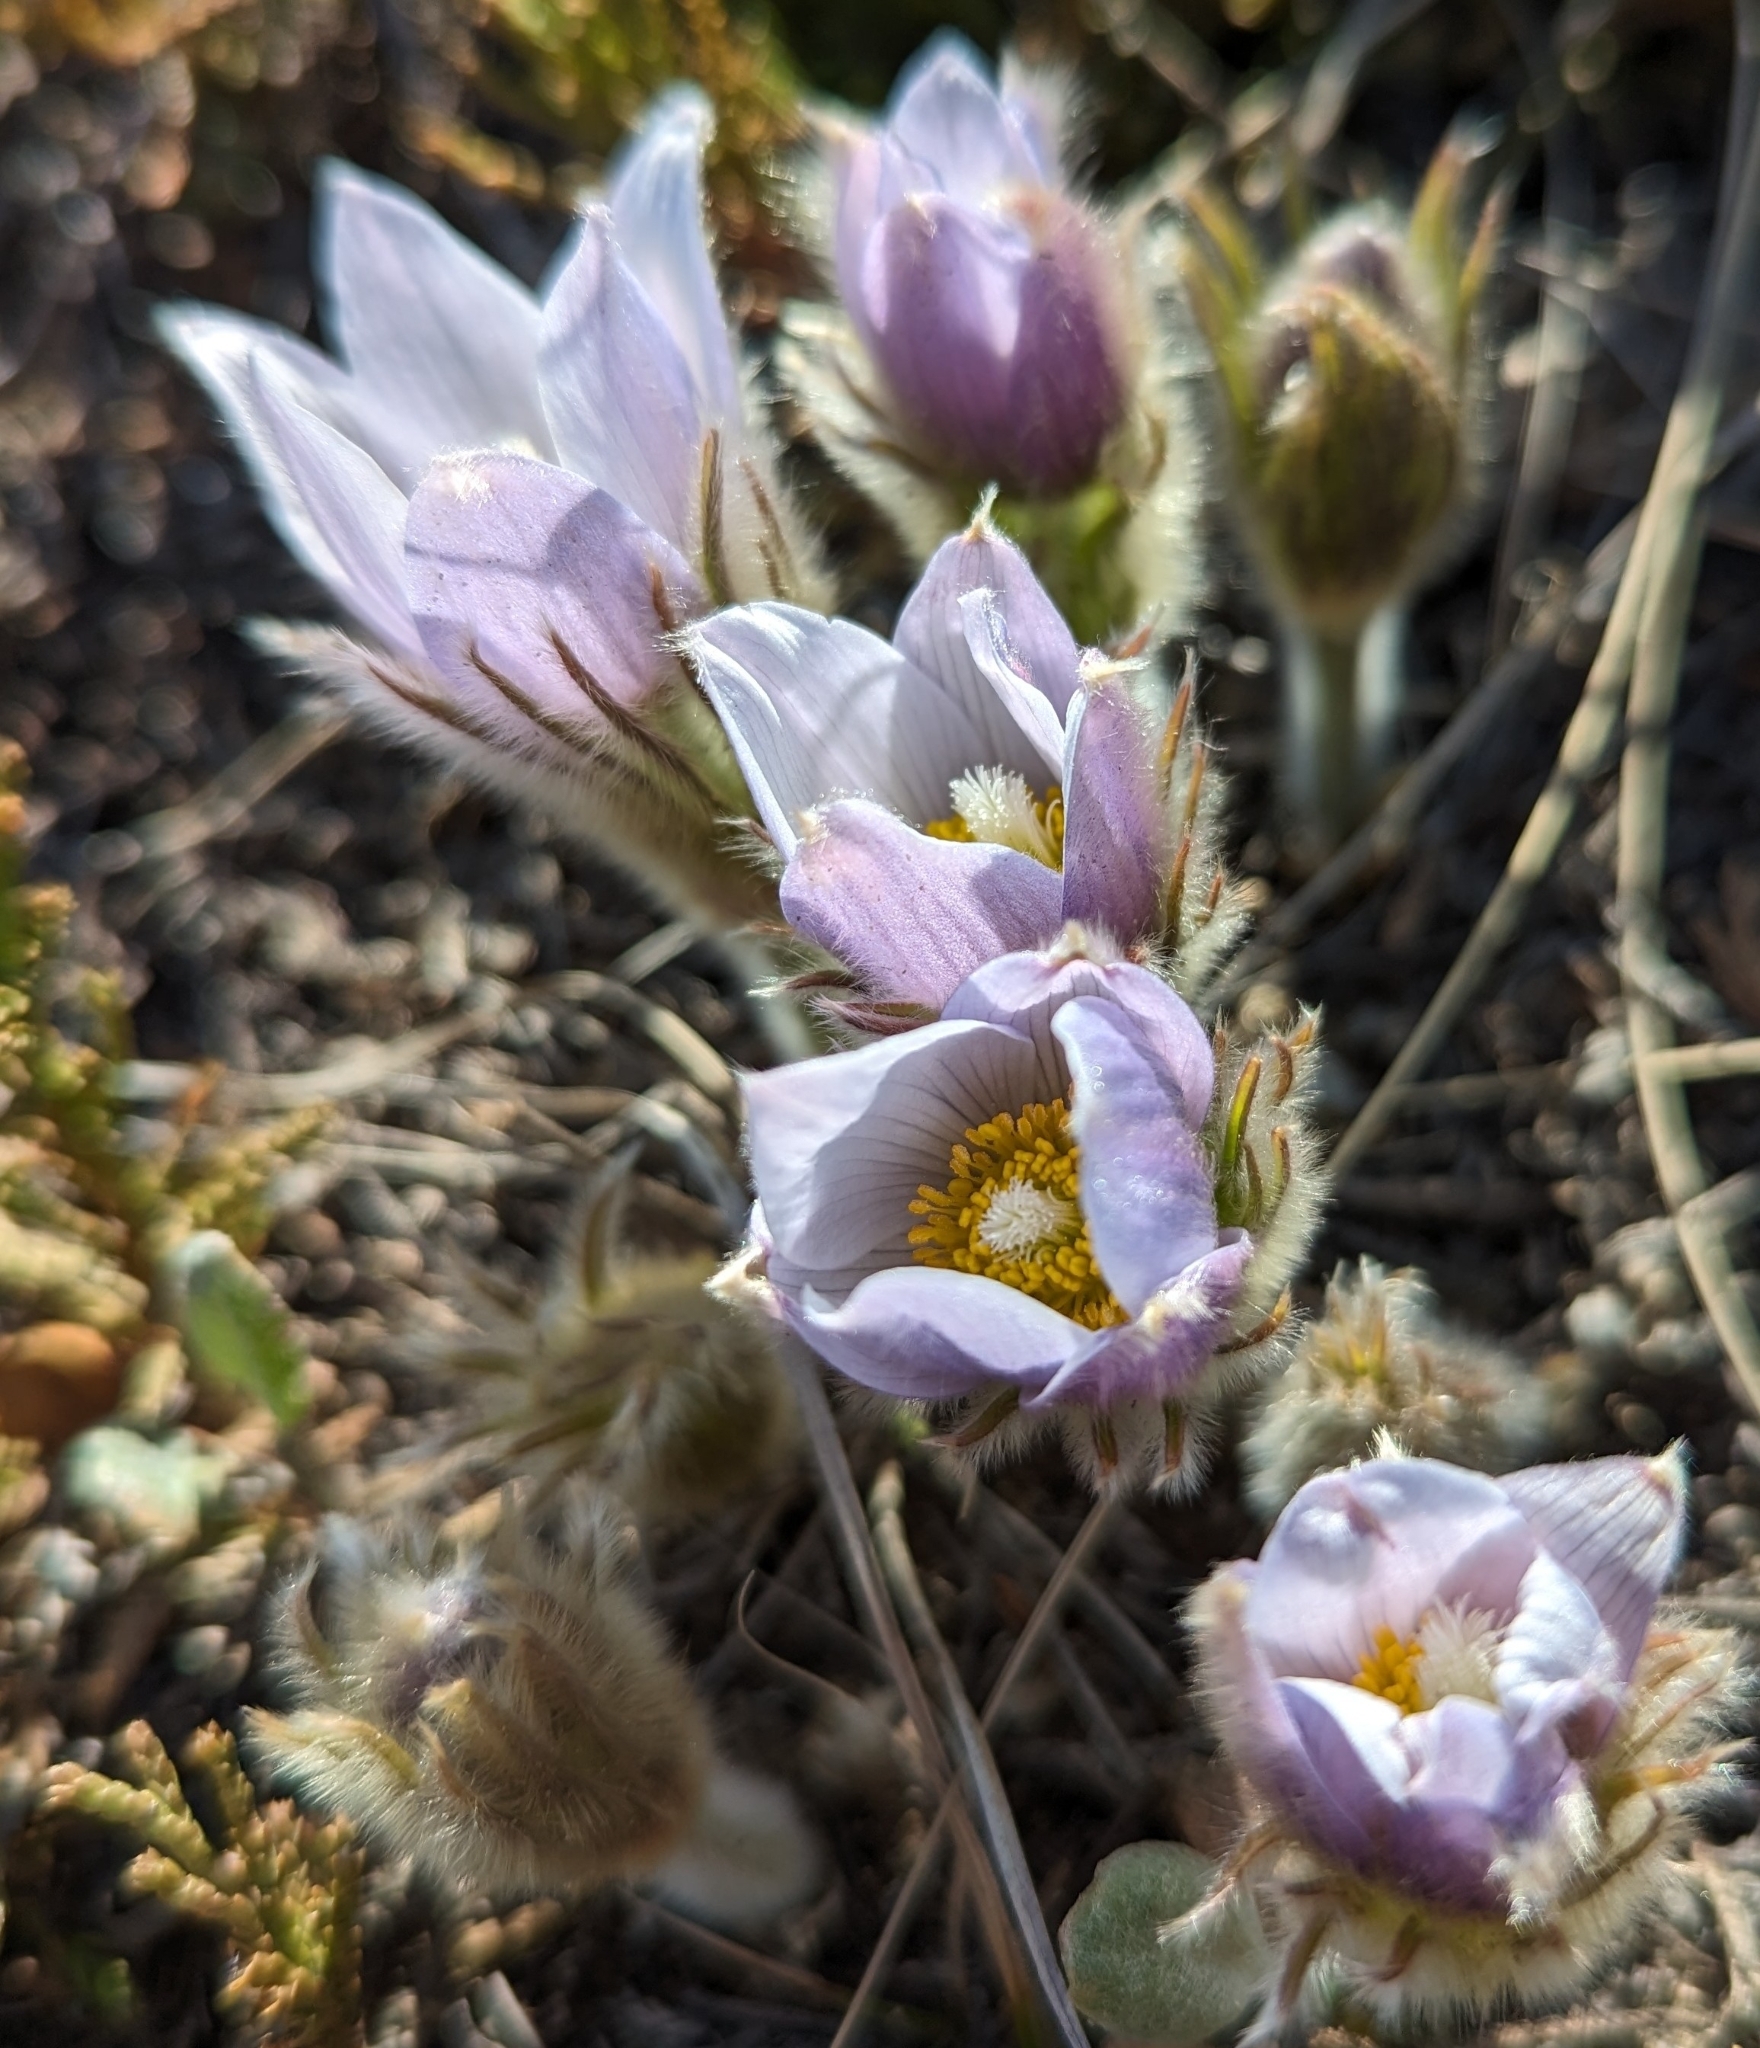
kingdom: Plantae
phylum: Tracheophyta
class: Magnoliopsida
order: Ranunculales
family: Ranunculaceae
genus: Pulsatilla
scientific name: Pulsatilla nuttalliana
